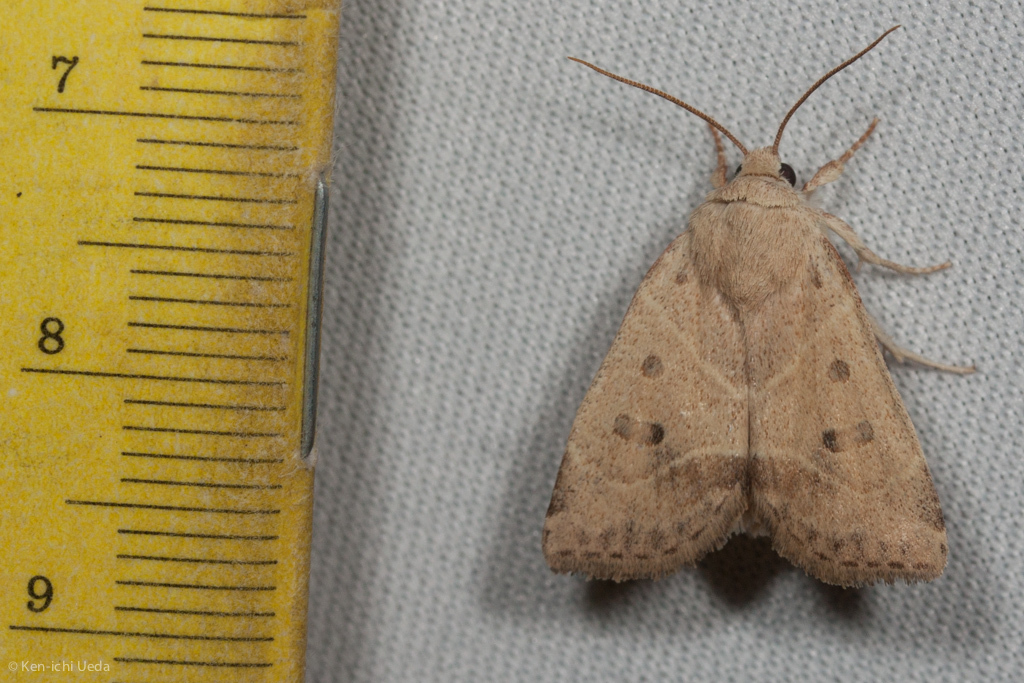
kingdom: Animalia
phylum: Arthropoda
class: Insecta
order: Lepidoptera
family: Noctuidae
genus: Cosmia
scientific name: Cosmia calami
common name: American dun-bar moth
